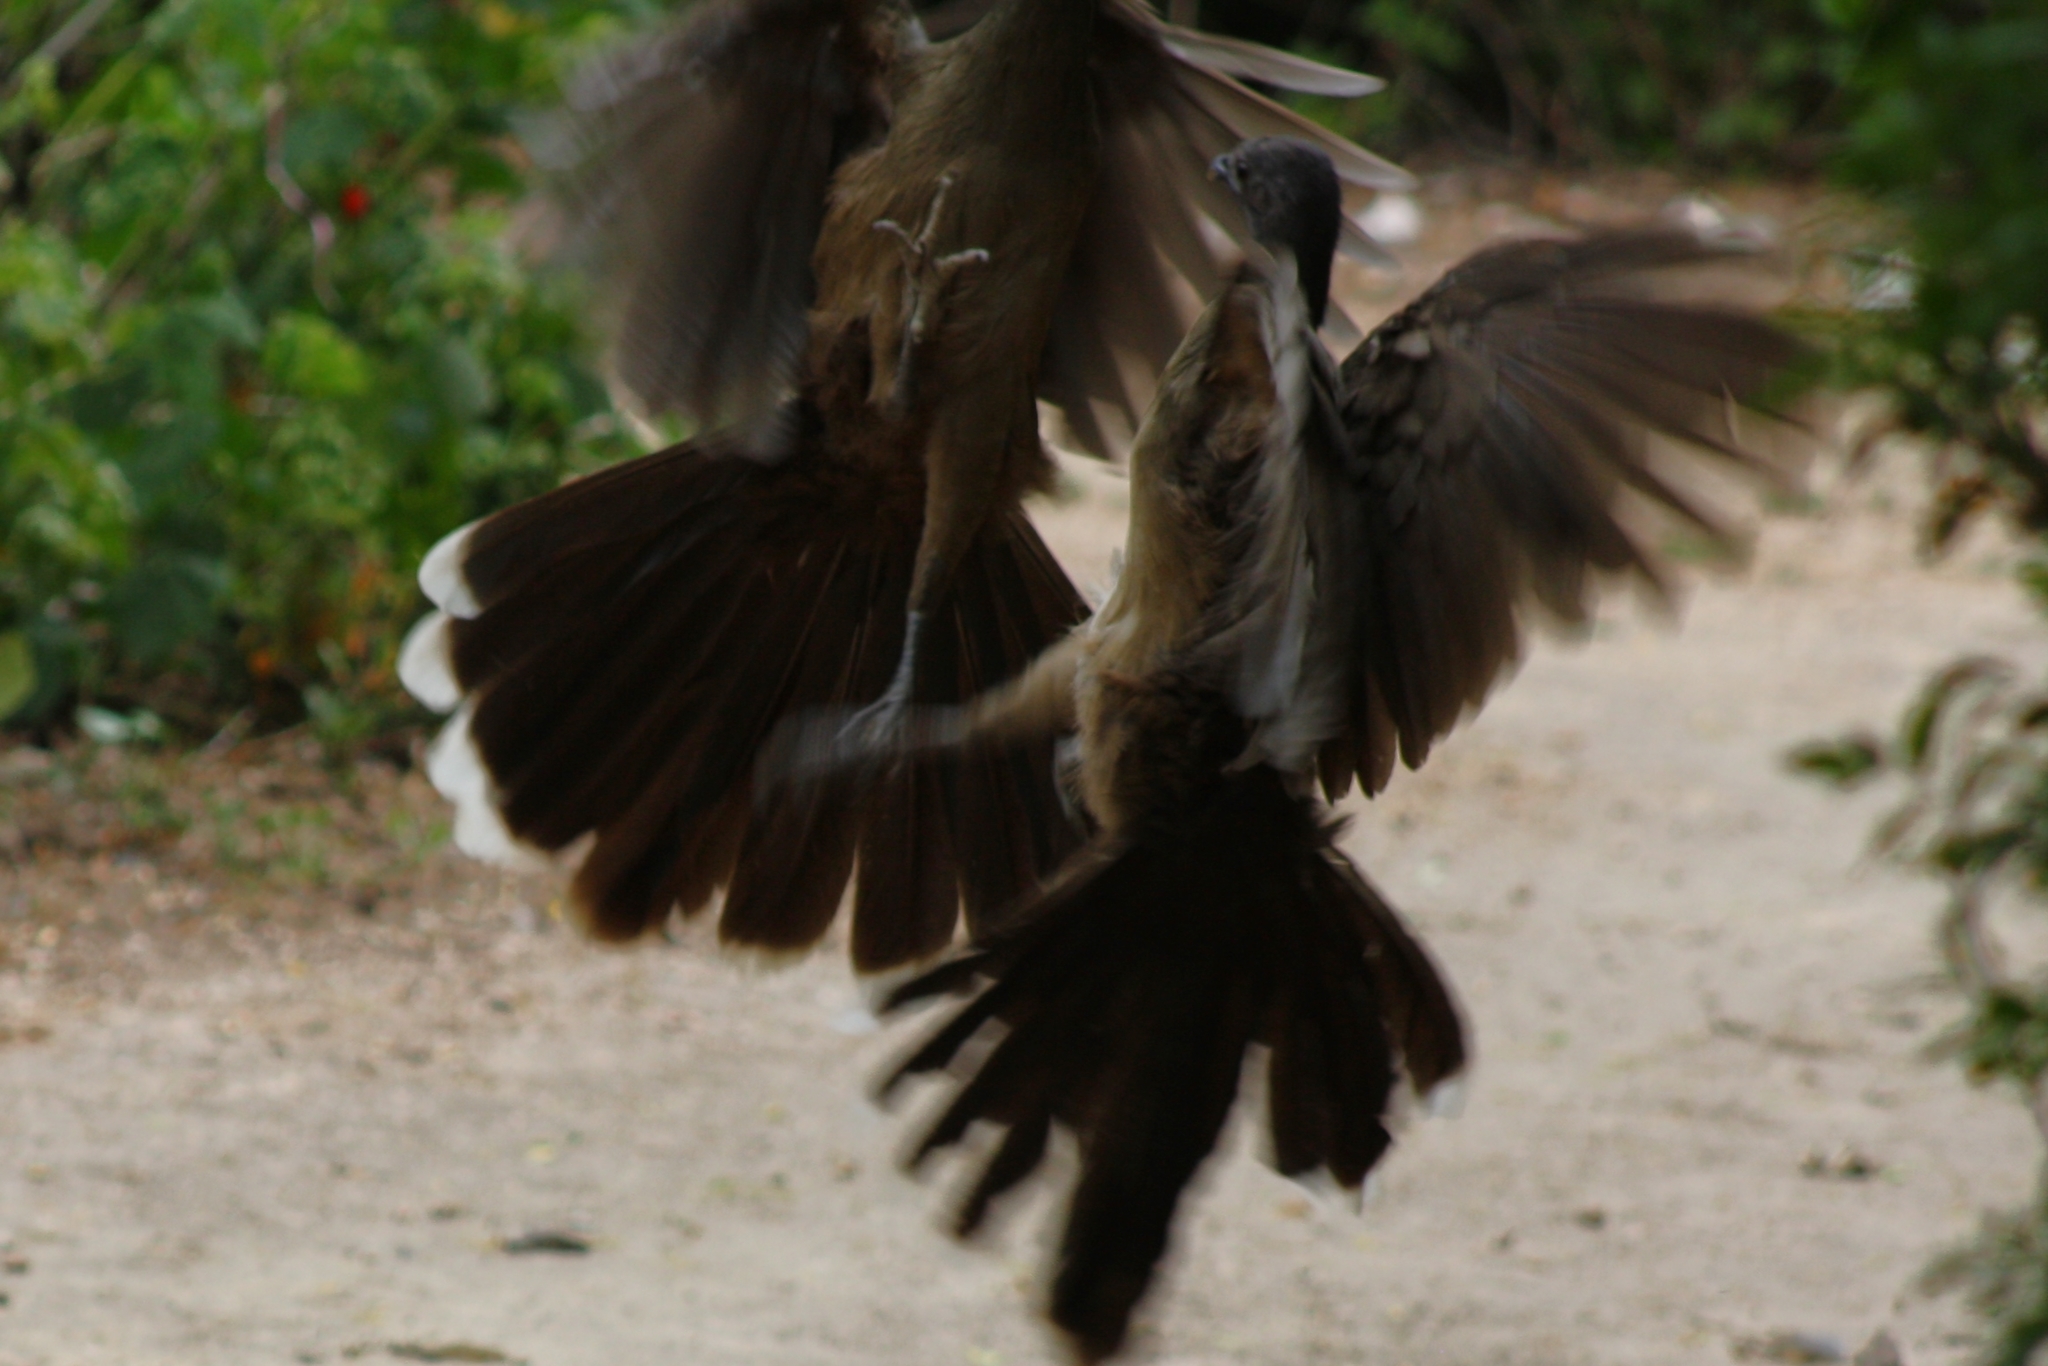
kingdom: Animalia
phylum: Chordata
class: Aves
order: Galliformes
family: Cracidae
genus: Ortalis
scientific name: Ortalis vetula
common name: Plain chachalaca
